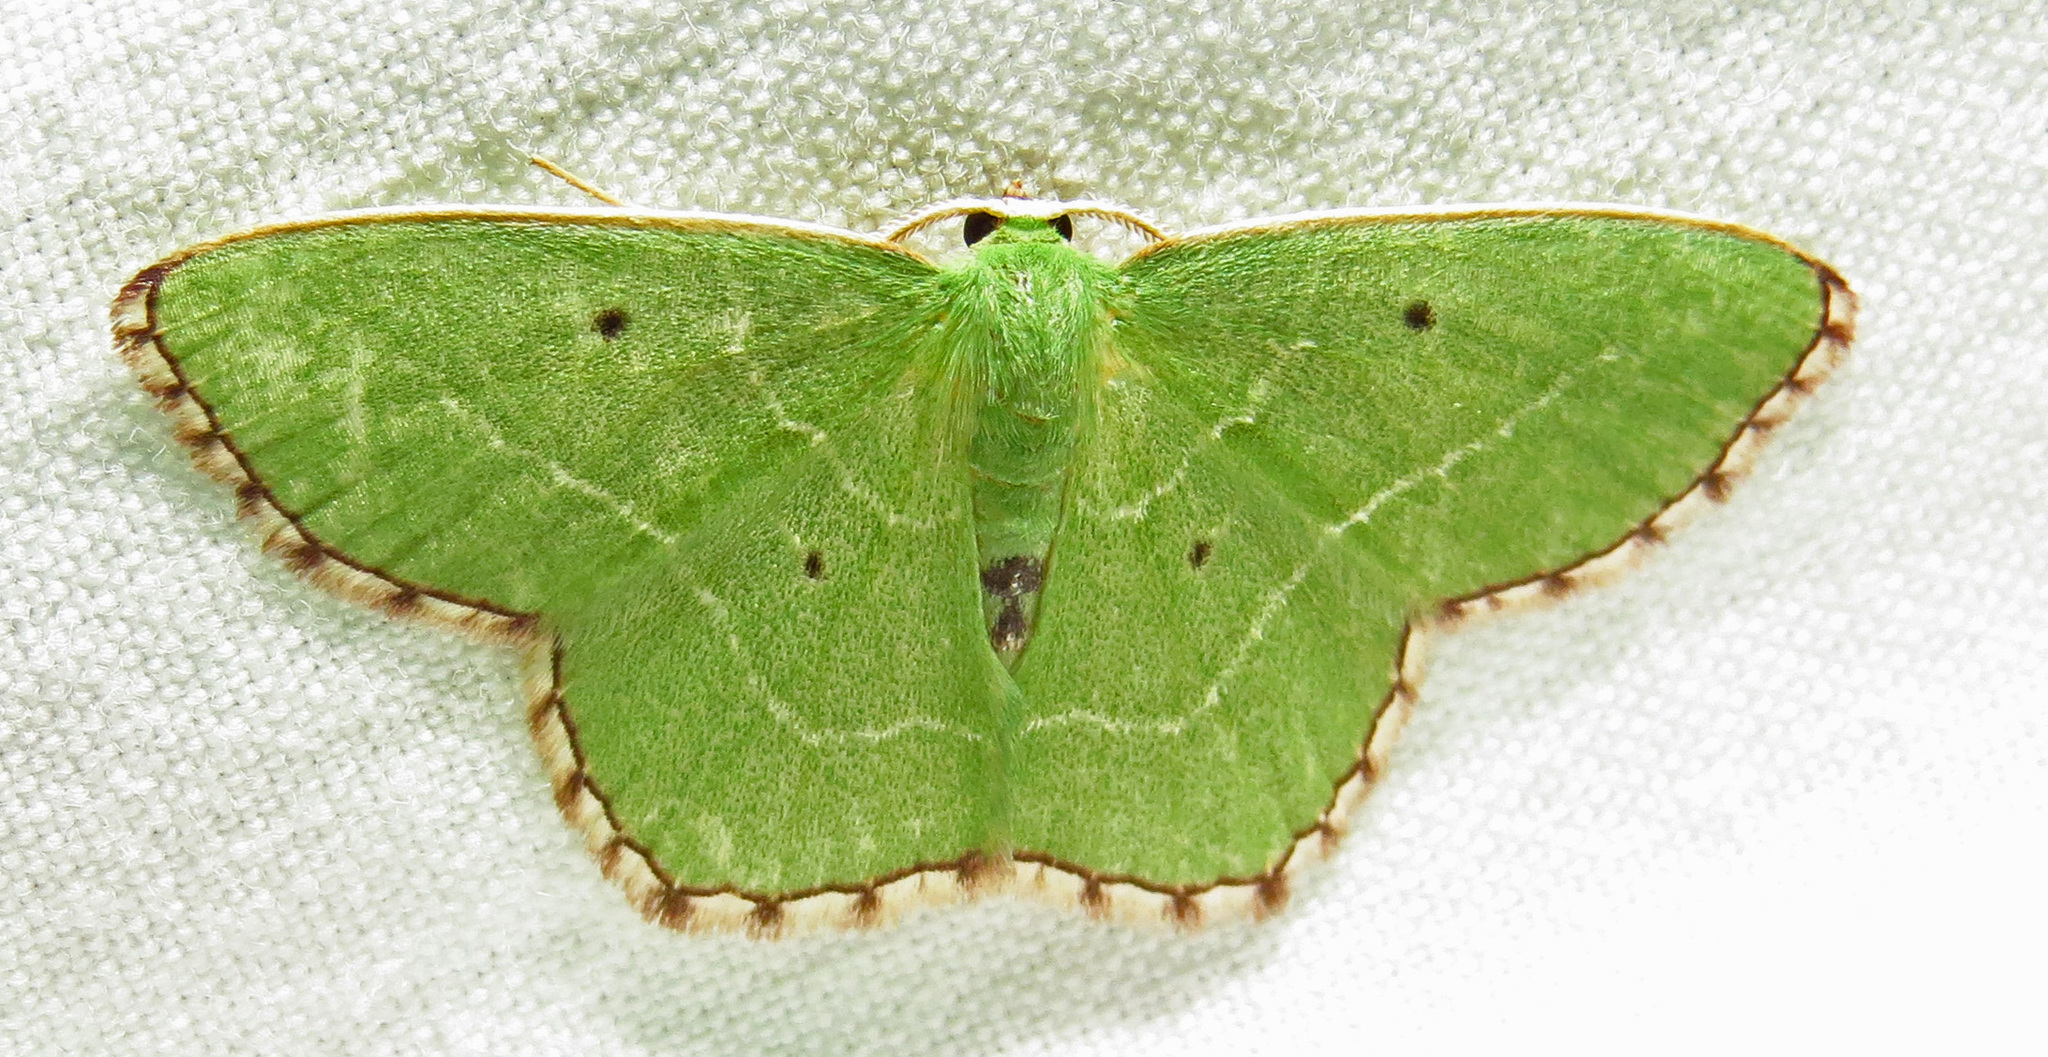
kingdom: Animalia
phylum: Arthropoda
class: Insecta
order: Lepidoptera
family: Geometridae
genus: Nemoria
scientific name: Nemoria saturiba
